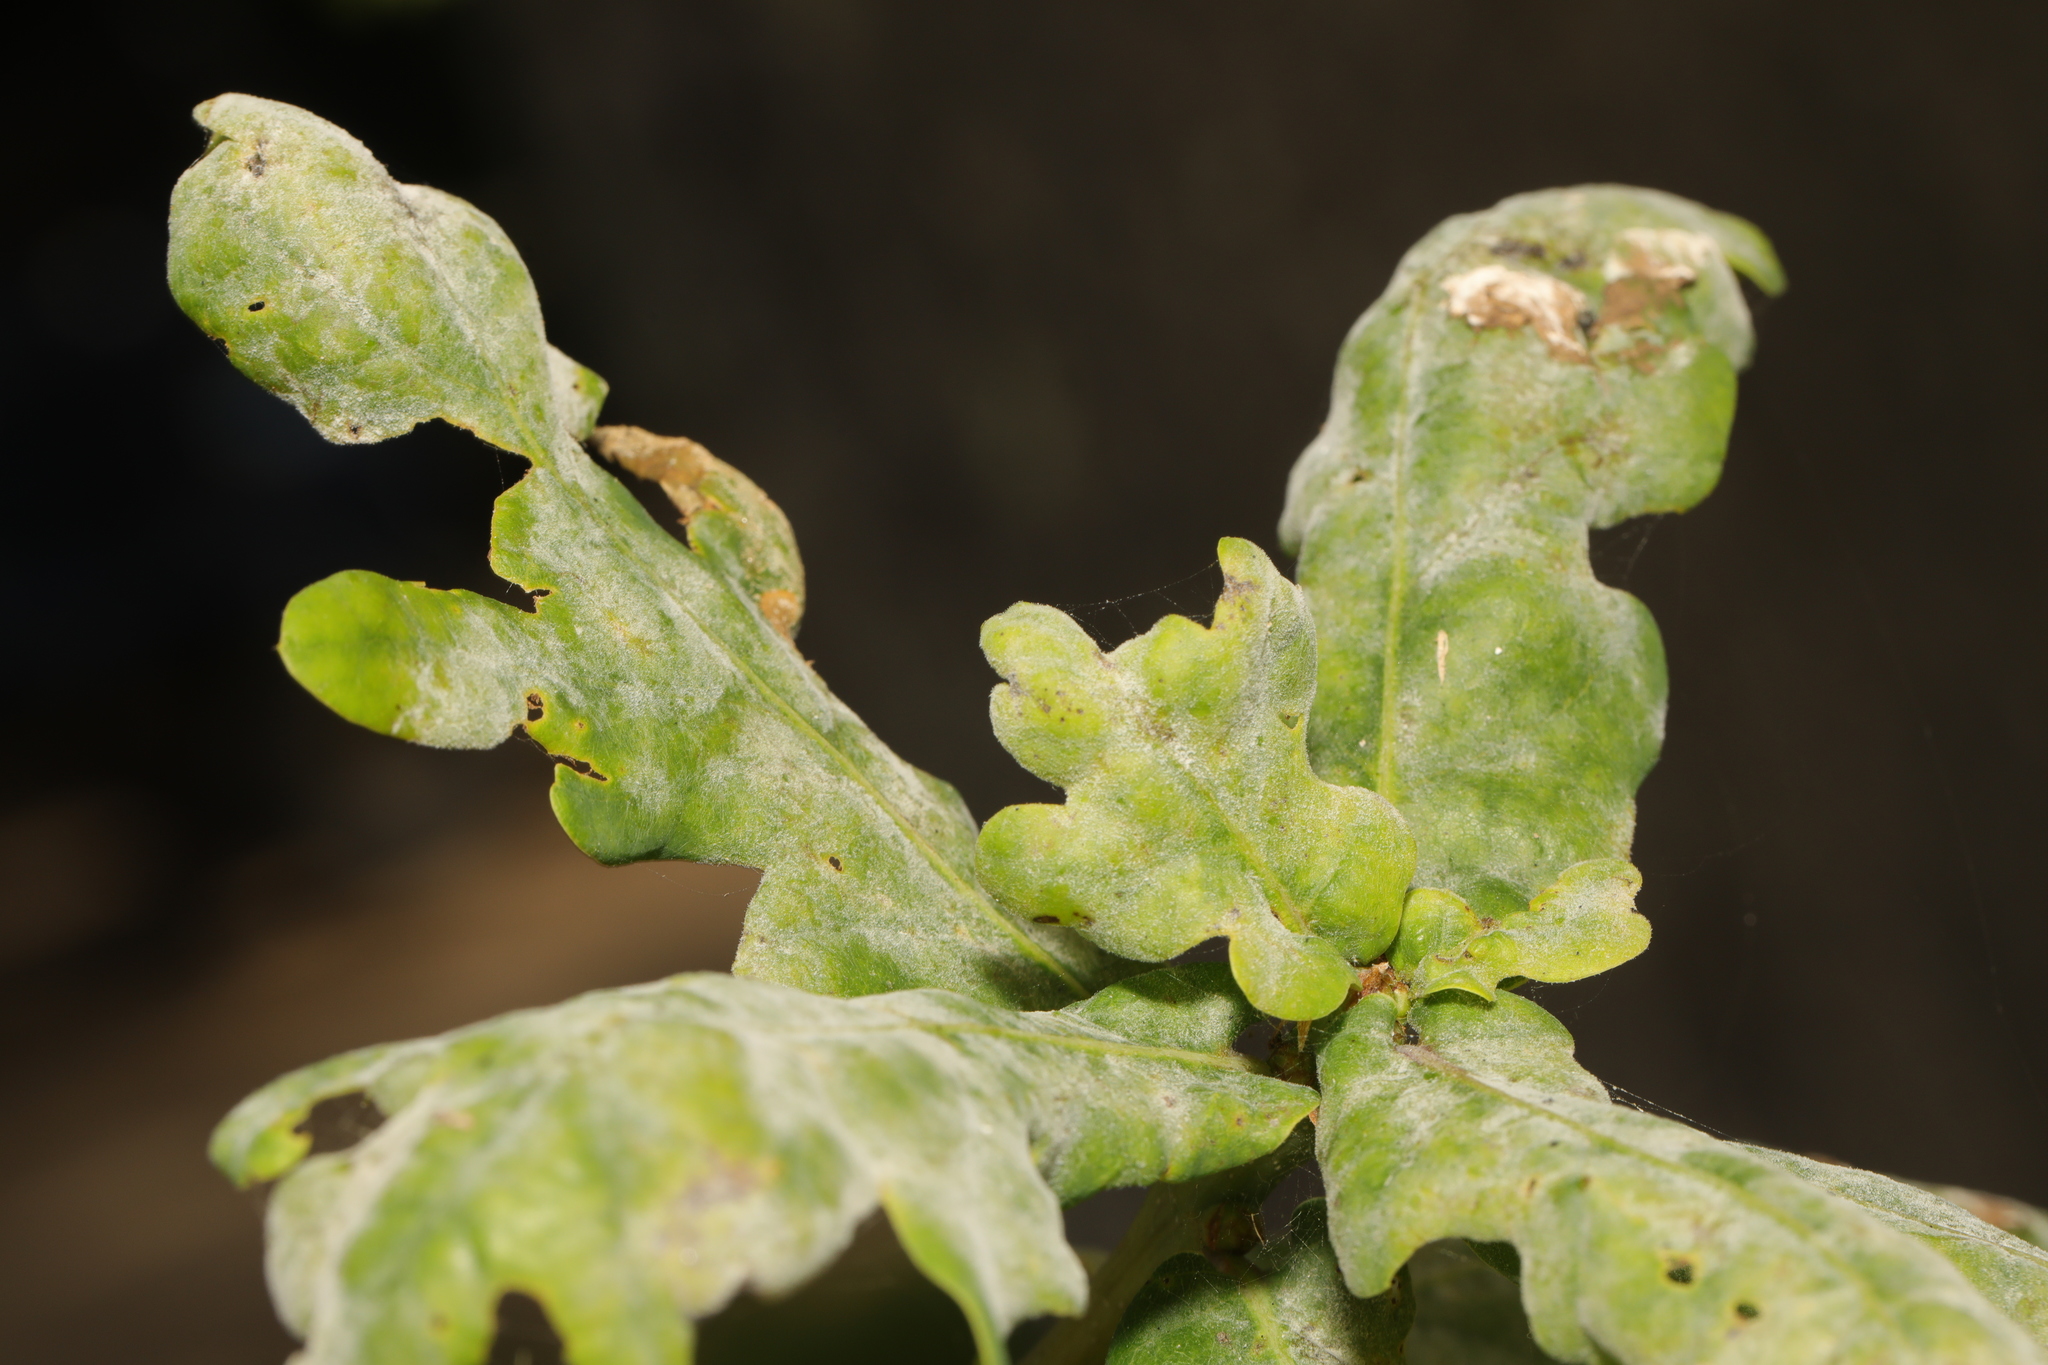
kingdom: Fungi
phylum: Ascomycota
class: Leotiomycetes
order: Helotiales
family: Erysiphaceae
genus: Erysiphe
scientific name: Erysiphe alphitoides
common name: Oak mildew
